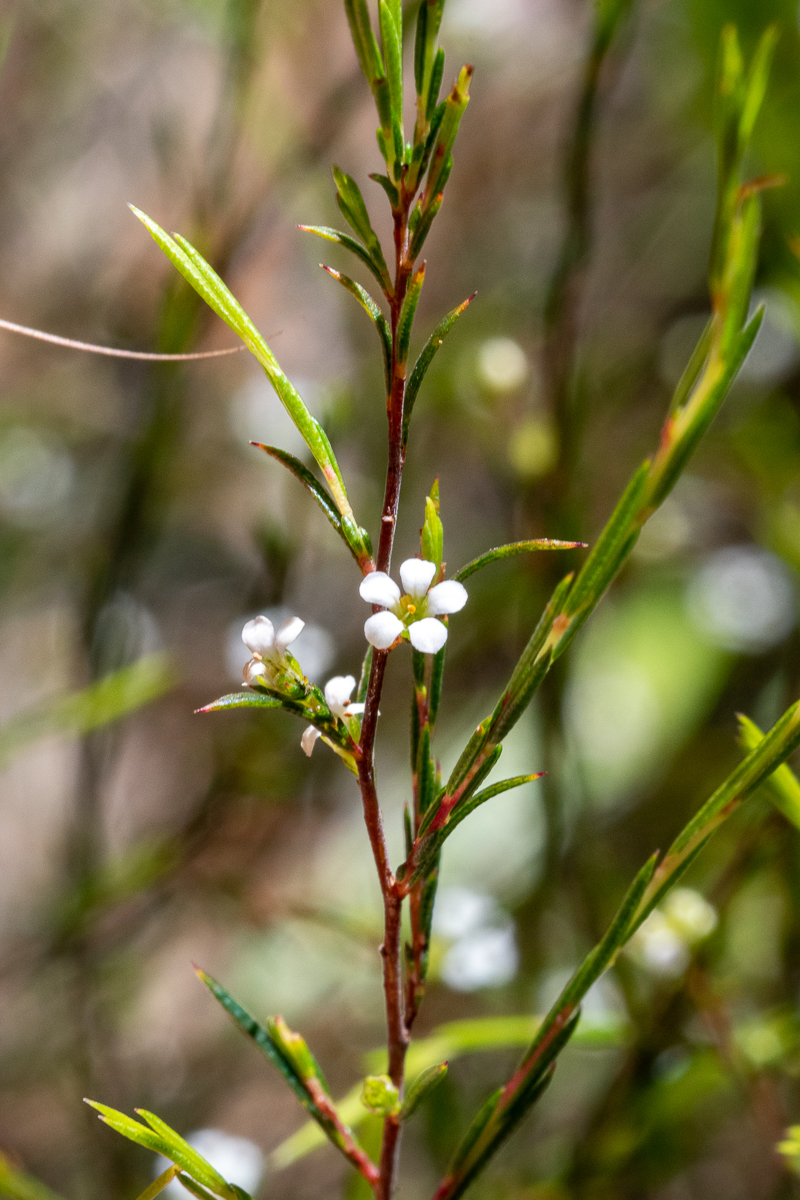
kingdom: Plantae
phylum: Tracheophyta
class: Magnoliopsida
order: Sapindales
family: Rutaceae
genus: Coleonema
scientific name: Coleonema juniperinum
